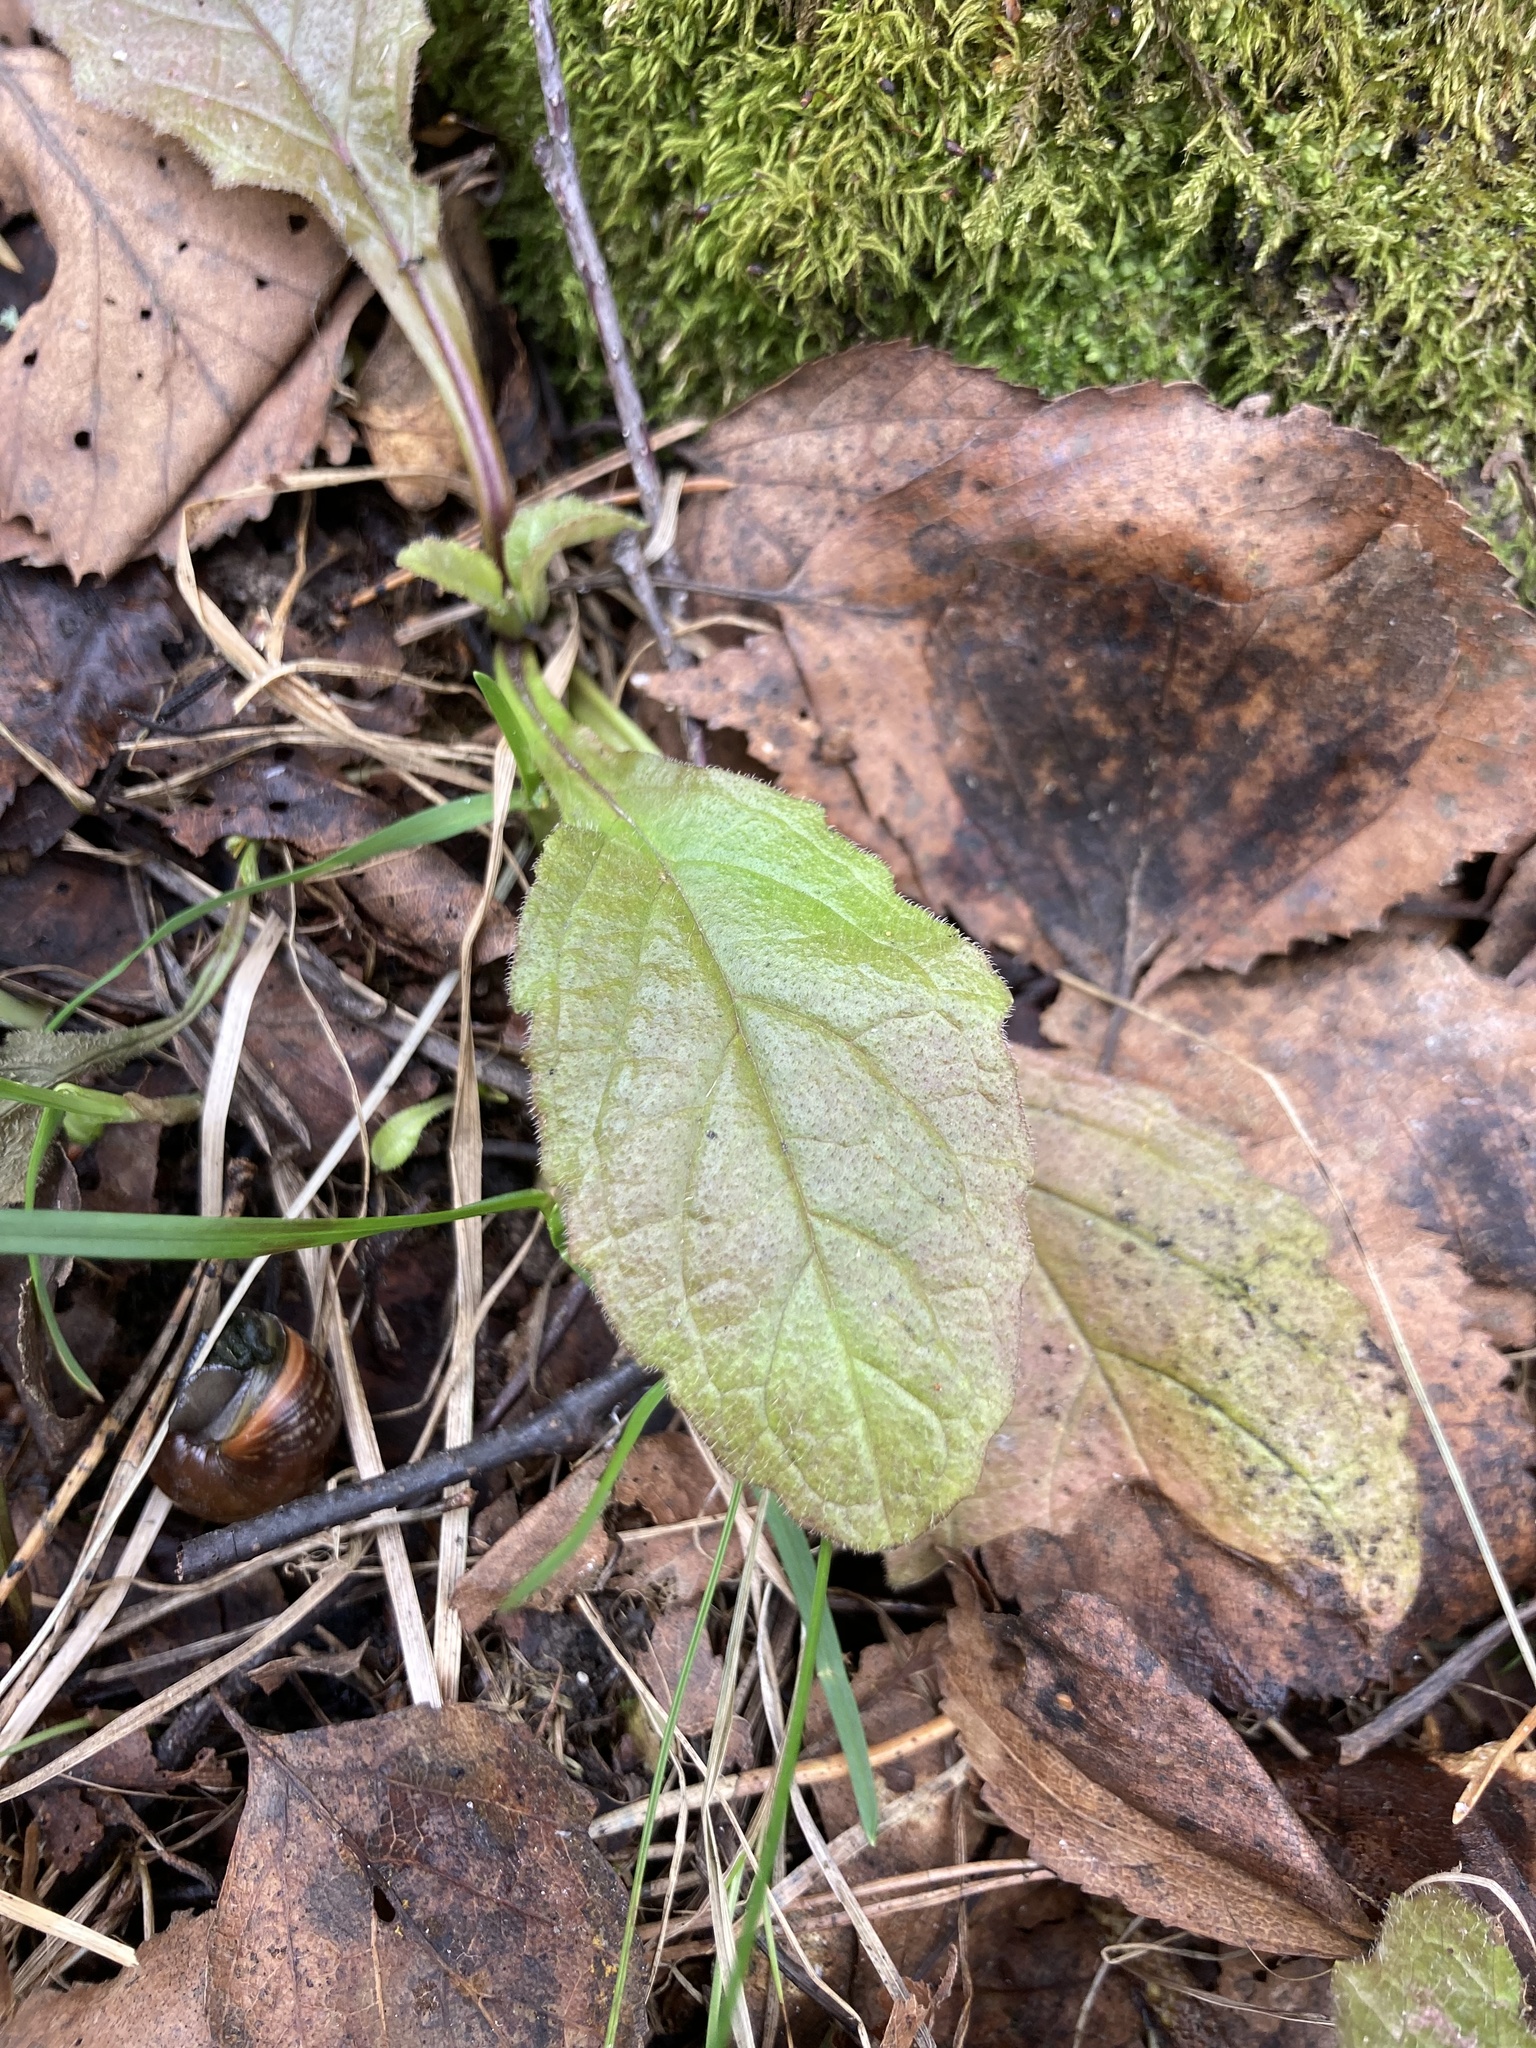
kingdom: Plantae
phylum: Tracheophyta
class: Magnoliopsida
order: Lamiales
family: Lamiaceae
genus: Ajuga
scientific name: Ajuga reptans
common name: Bugle
